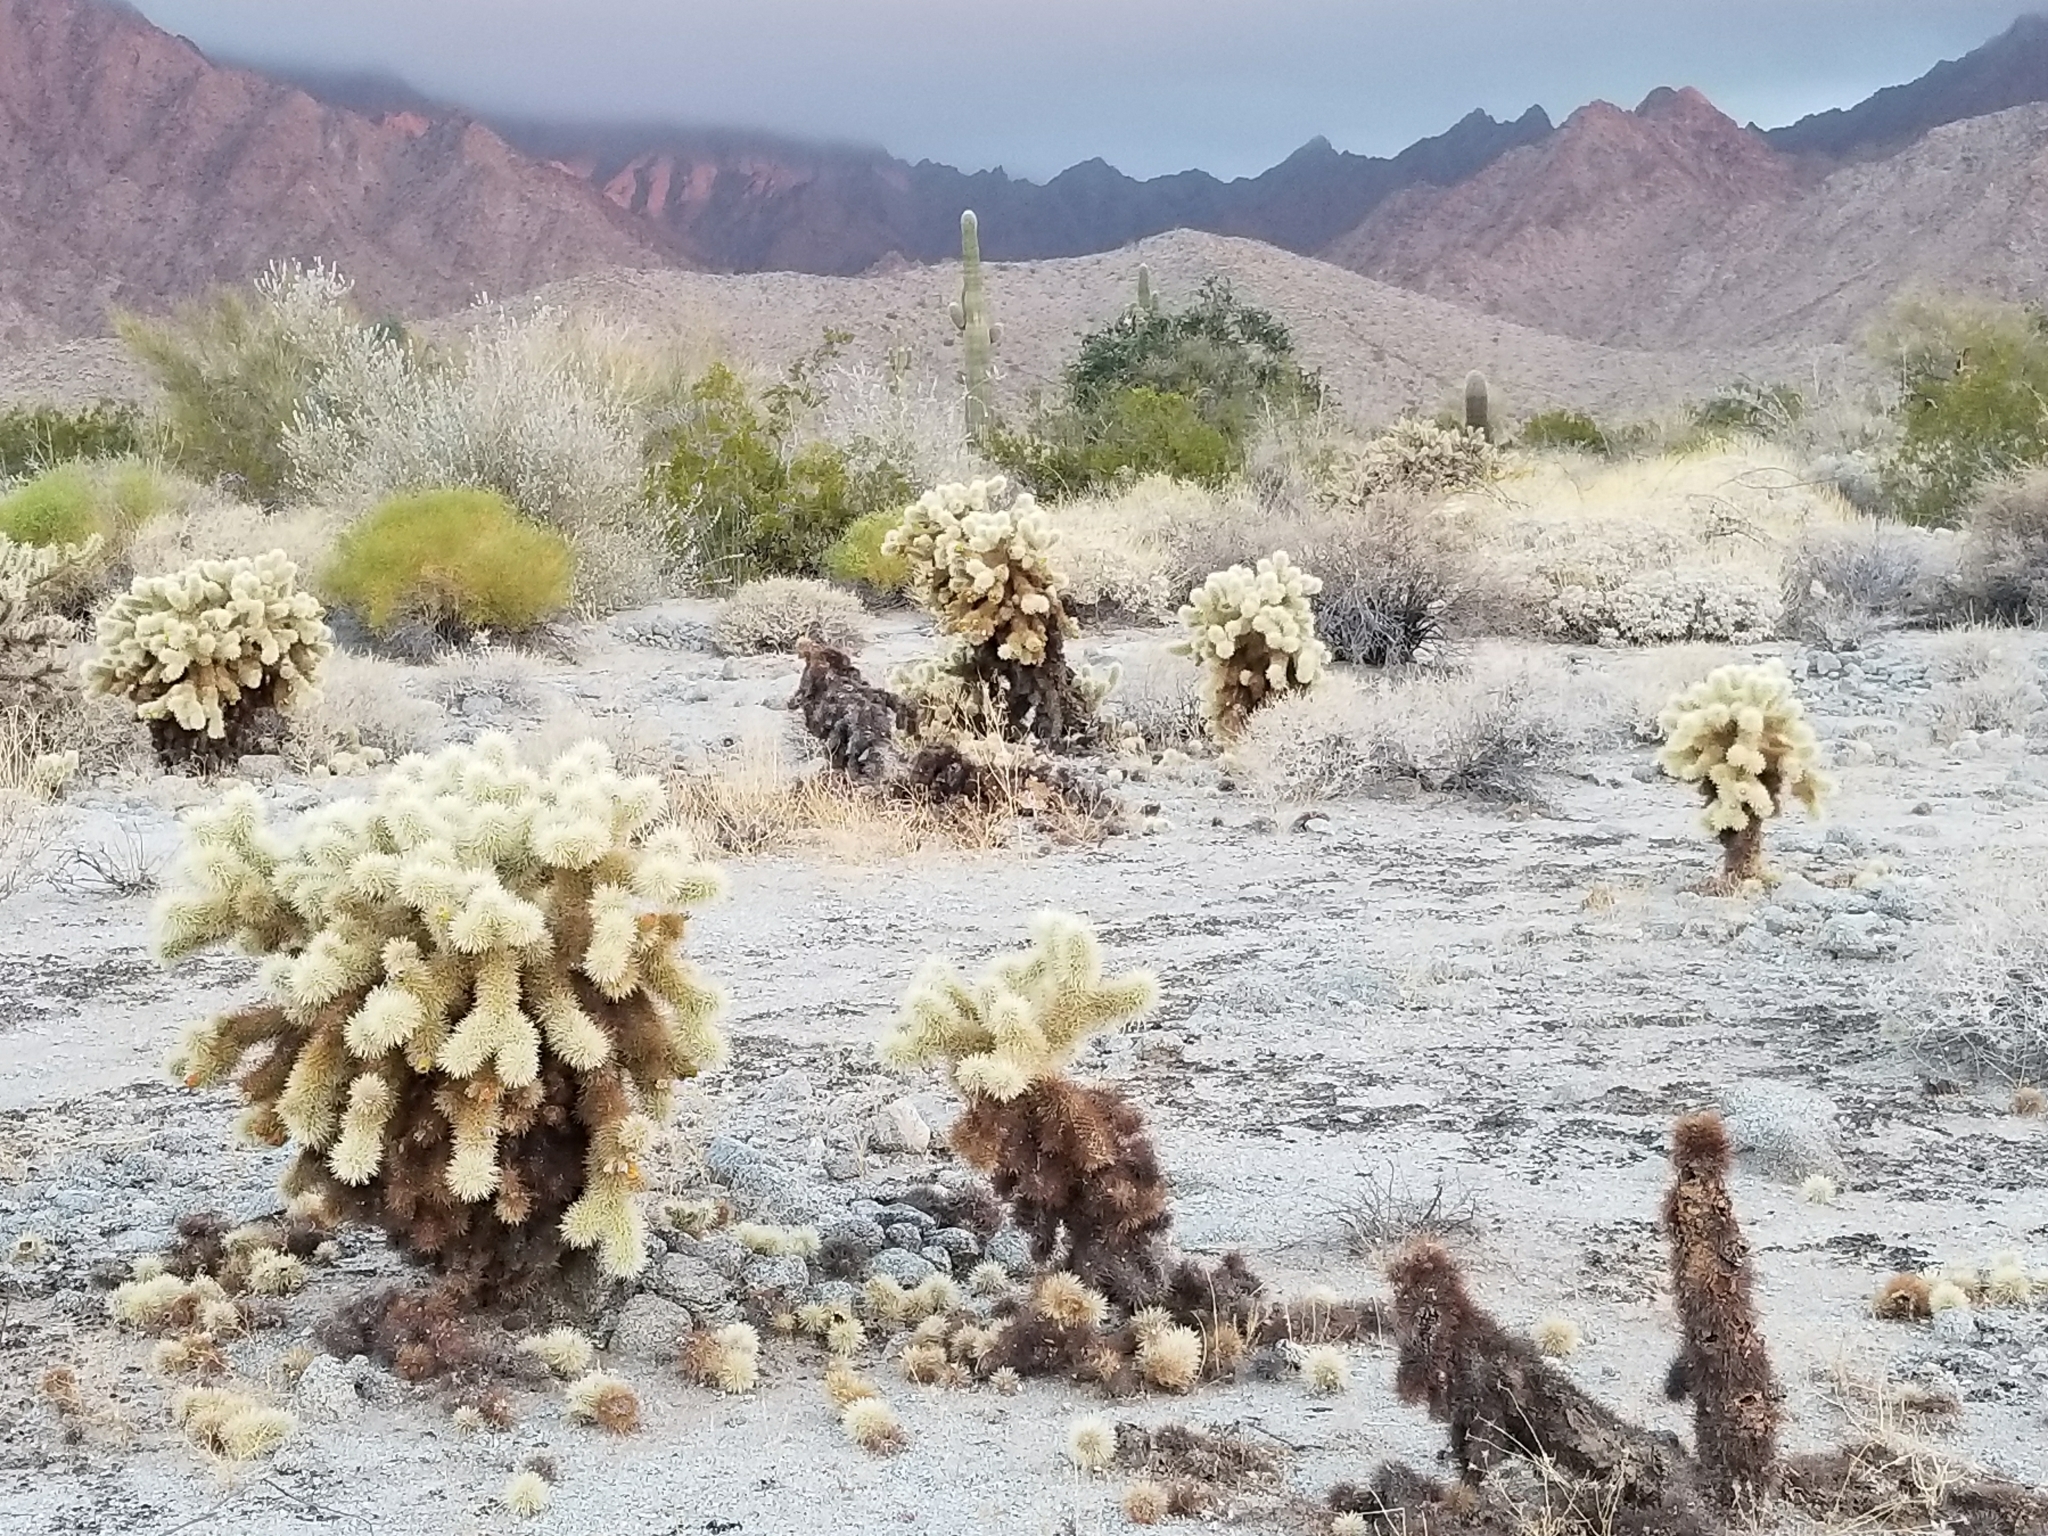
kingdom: Plantae
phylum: Tracheophyta
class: Magnoliopsida
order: Caryophyllales
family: Cactaceae
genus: Cylindropuntia
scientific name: Cylindropuntia fosbergii
